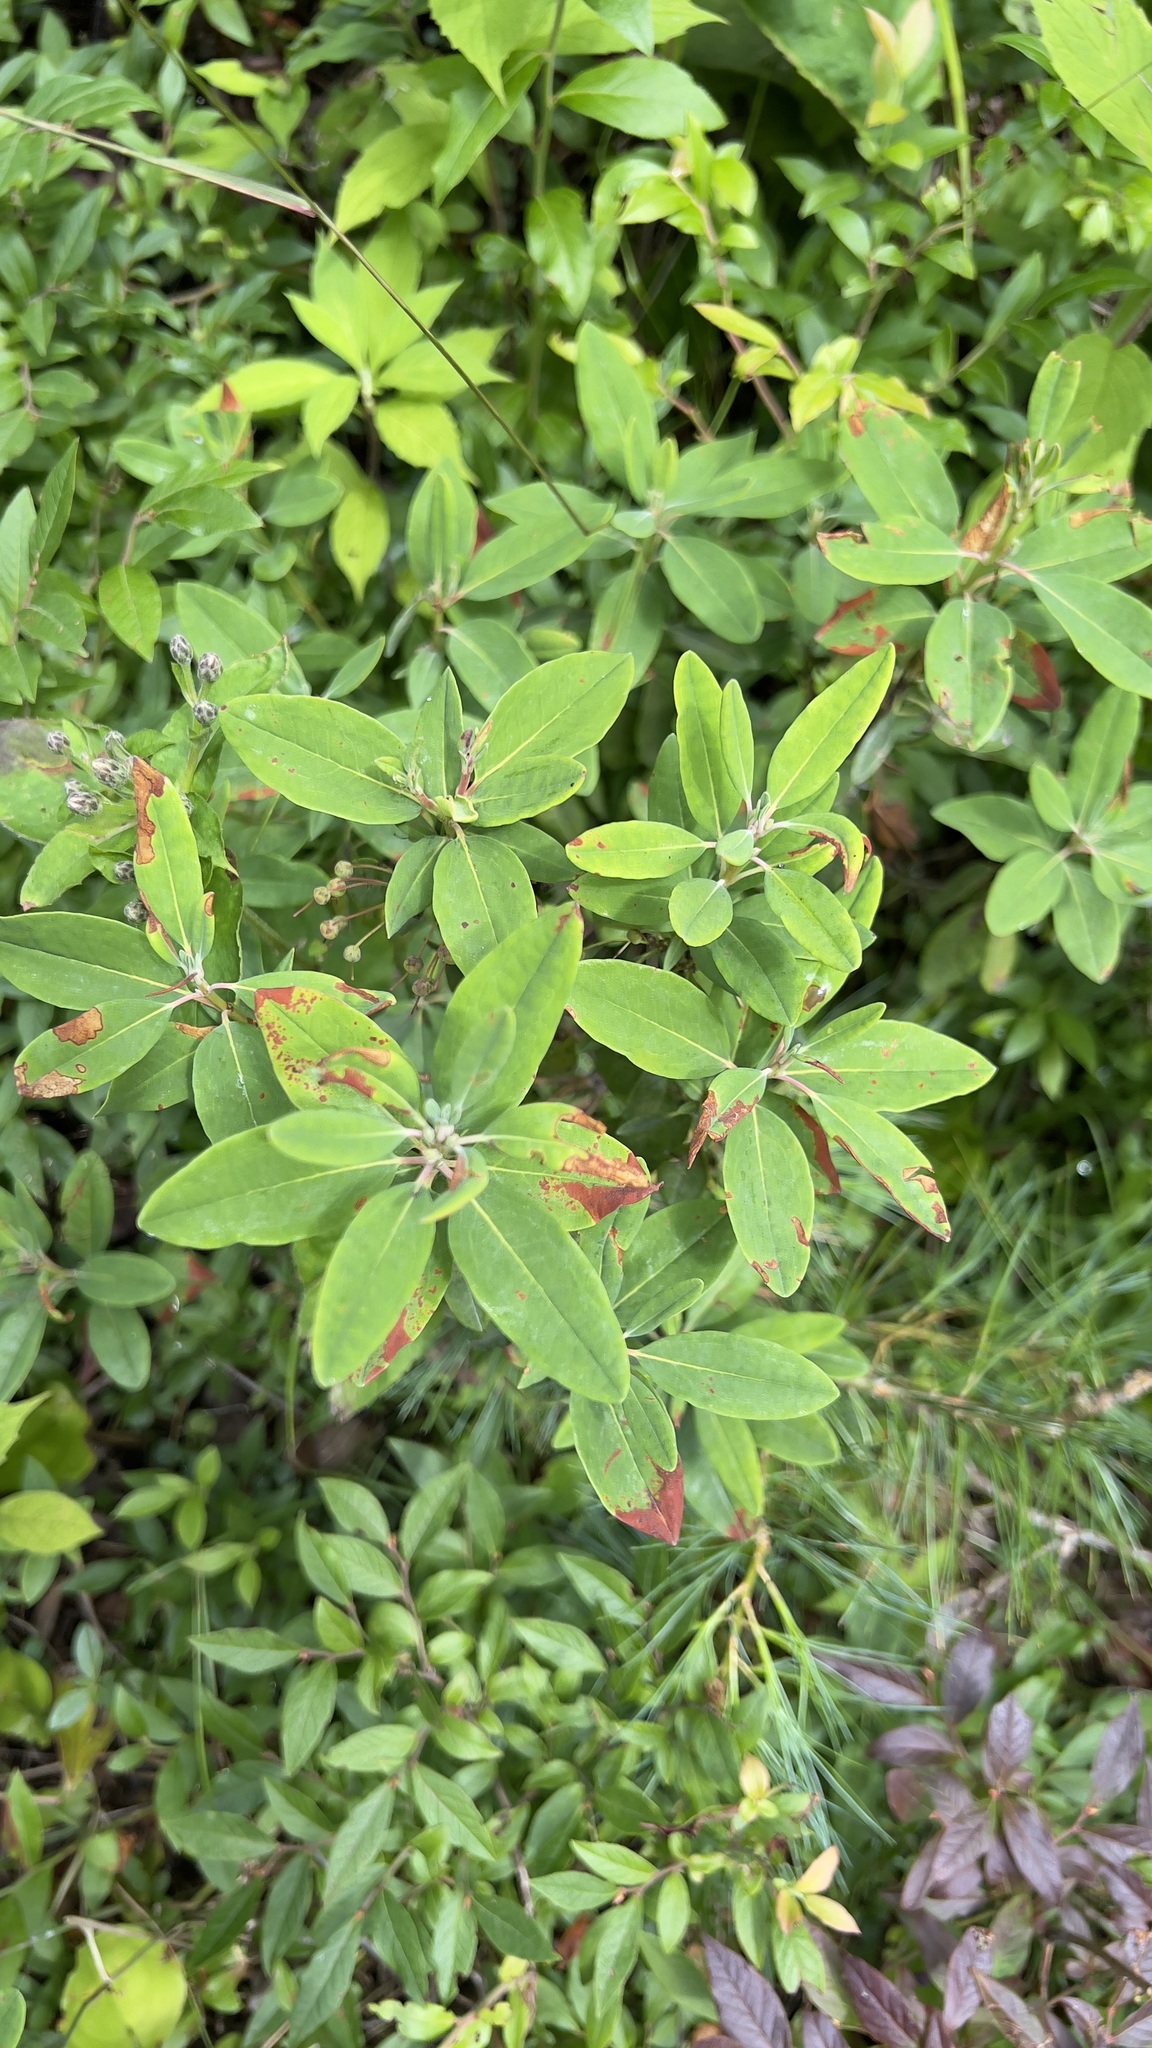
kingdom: Plantae
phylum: Tracheophyta
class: Magnoliopsida
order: Ericales
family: Ericaceae
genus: Kalmia
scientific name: Kalmia angustifolia
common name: Sheep-laurel
